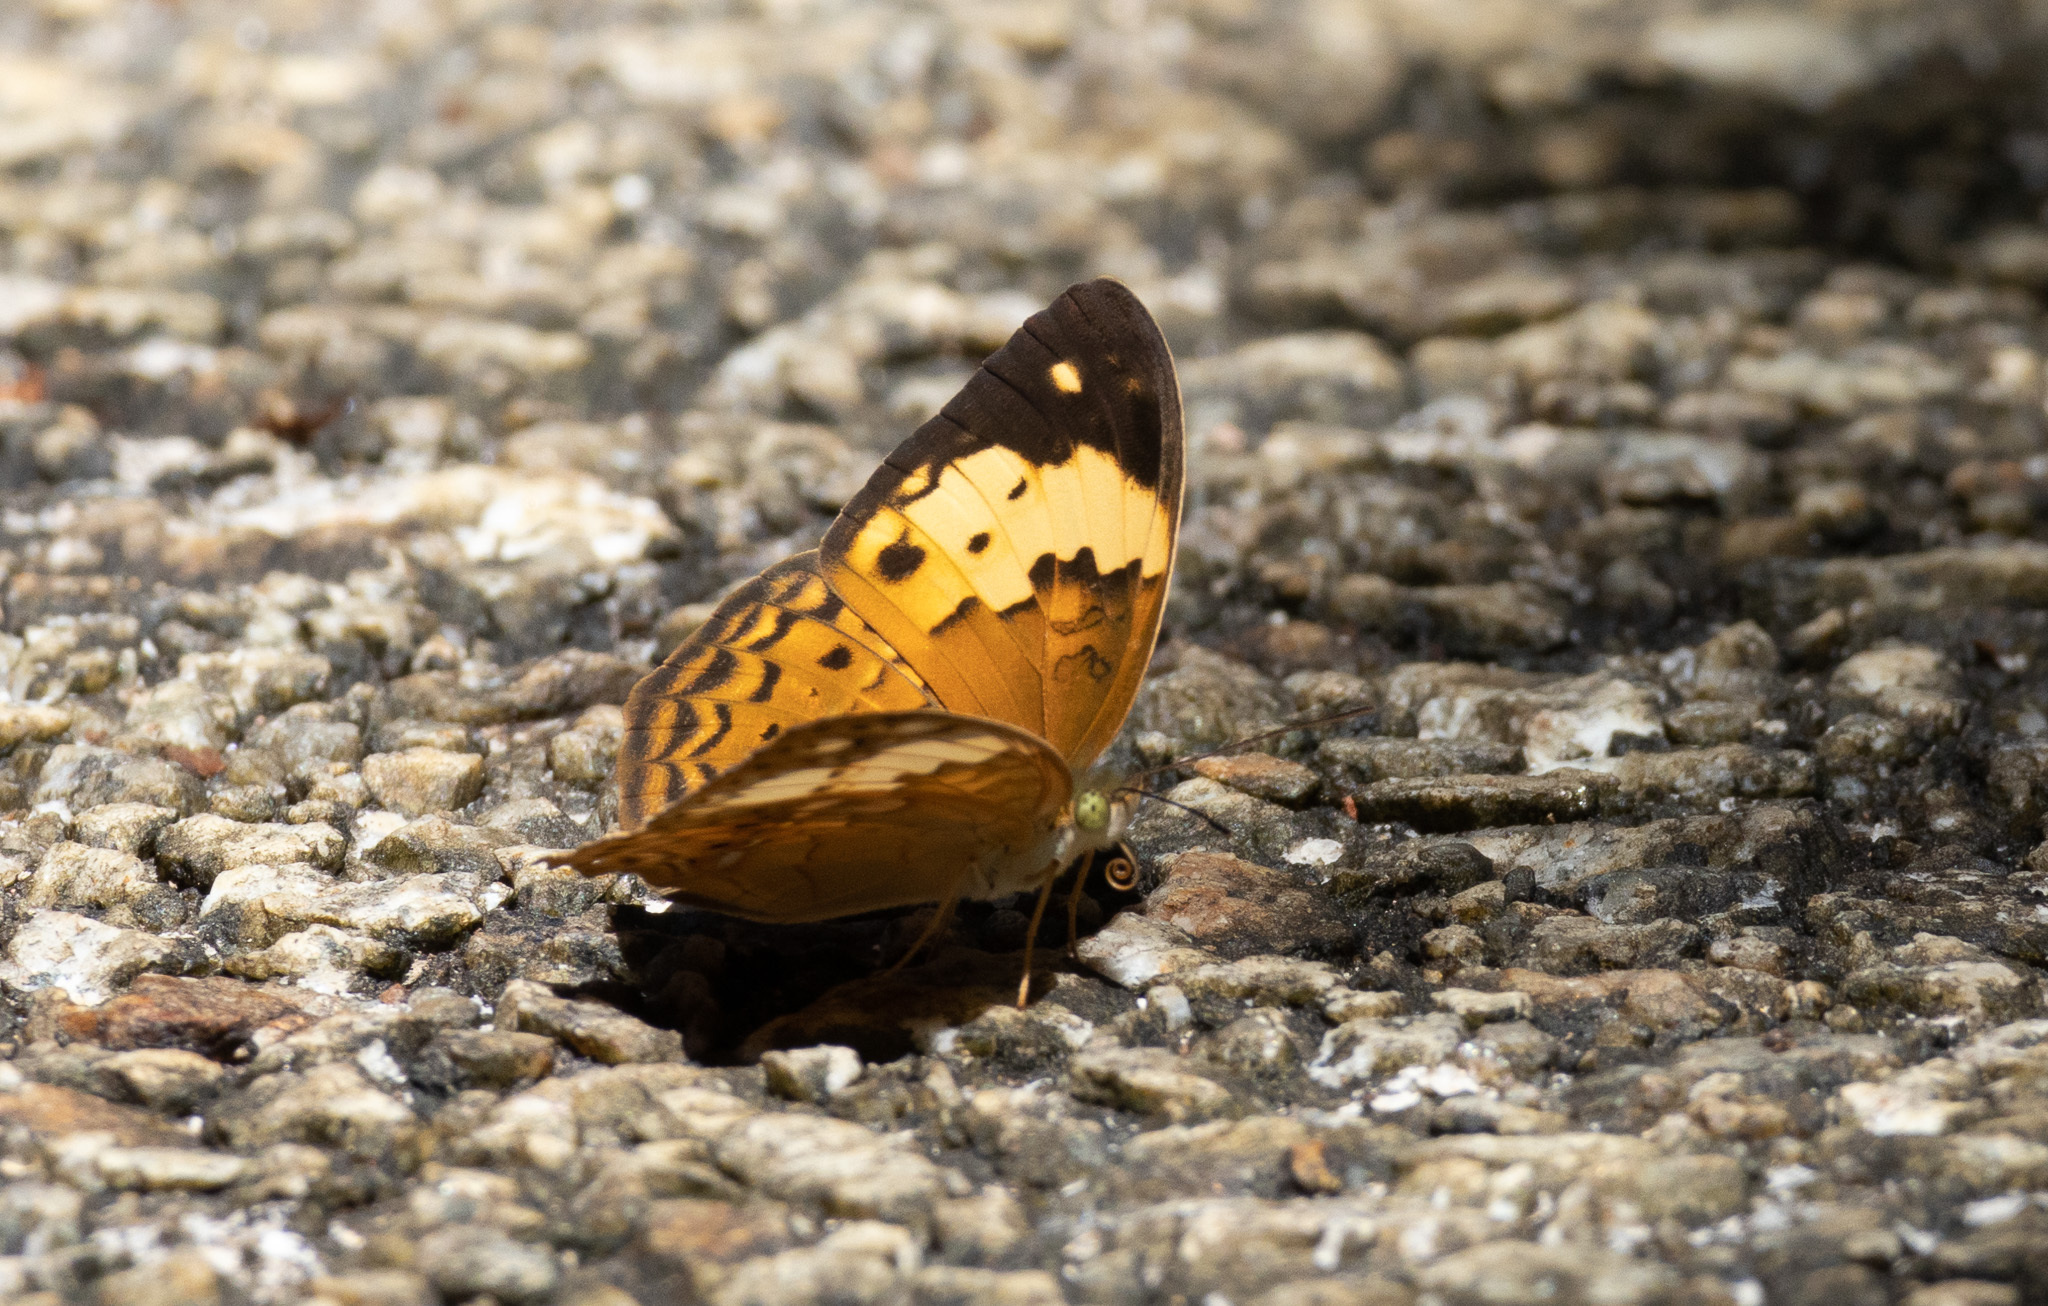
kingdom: Animalia
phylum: Arthropoda
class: Insecta
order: Lepidoptera
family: Nymphalidae
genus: Cupha
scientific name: Cupha erymanthis
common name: Rustic
